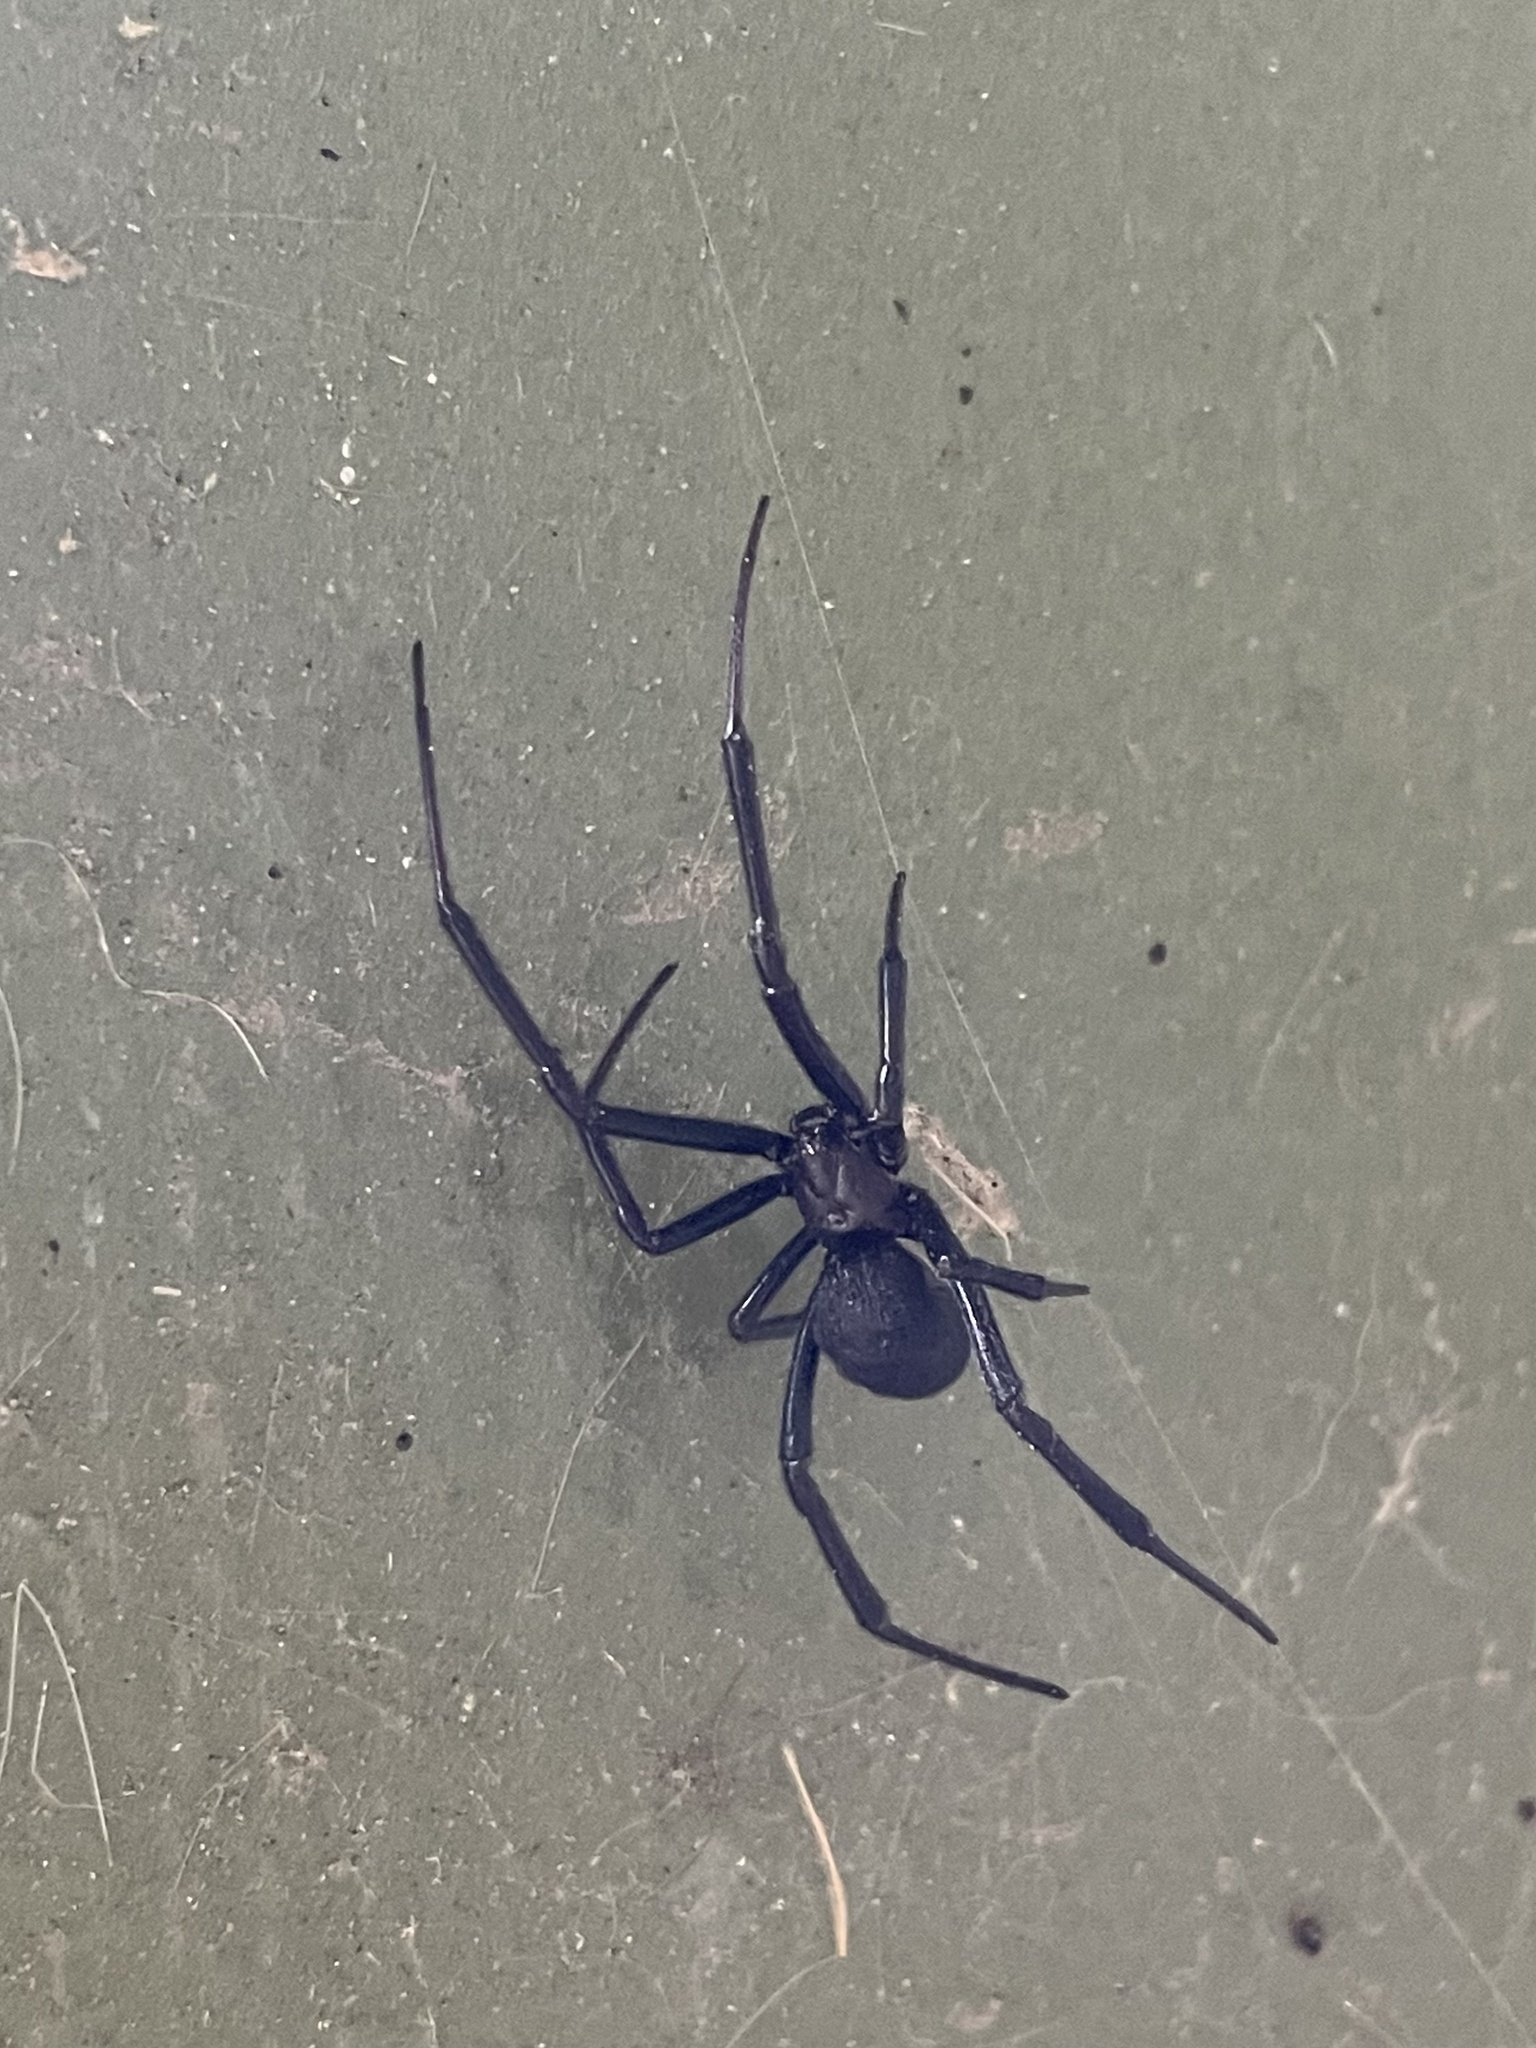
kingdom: Animalia
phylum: Arthropoda
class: Arachnida
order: Araneae
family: Theridiidae
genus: Latrodectus
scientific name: Latrodectus hesperus
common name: Western black widow
